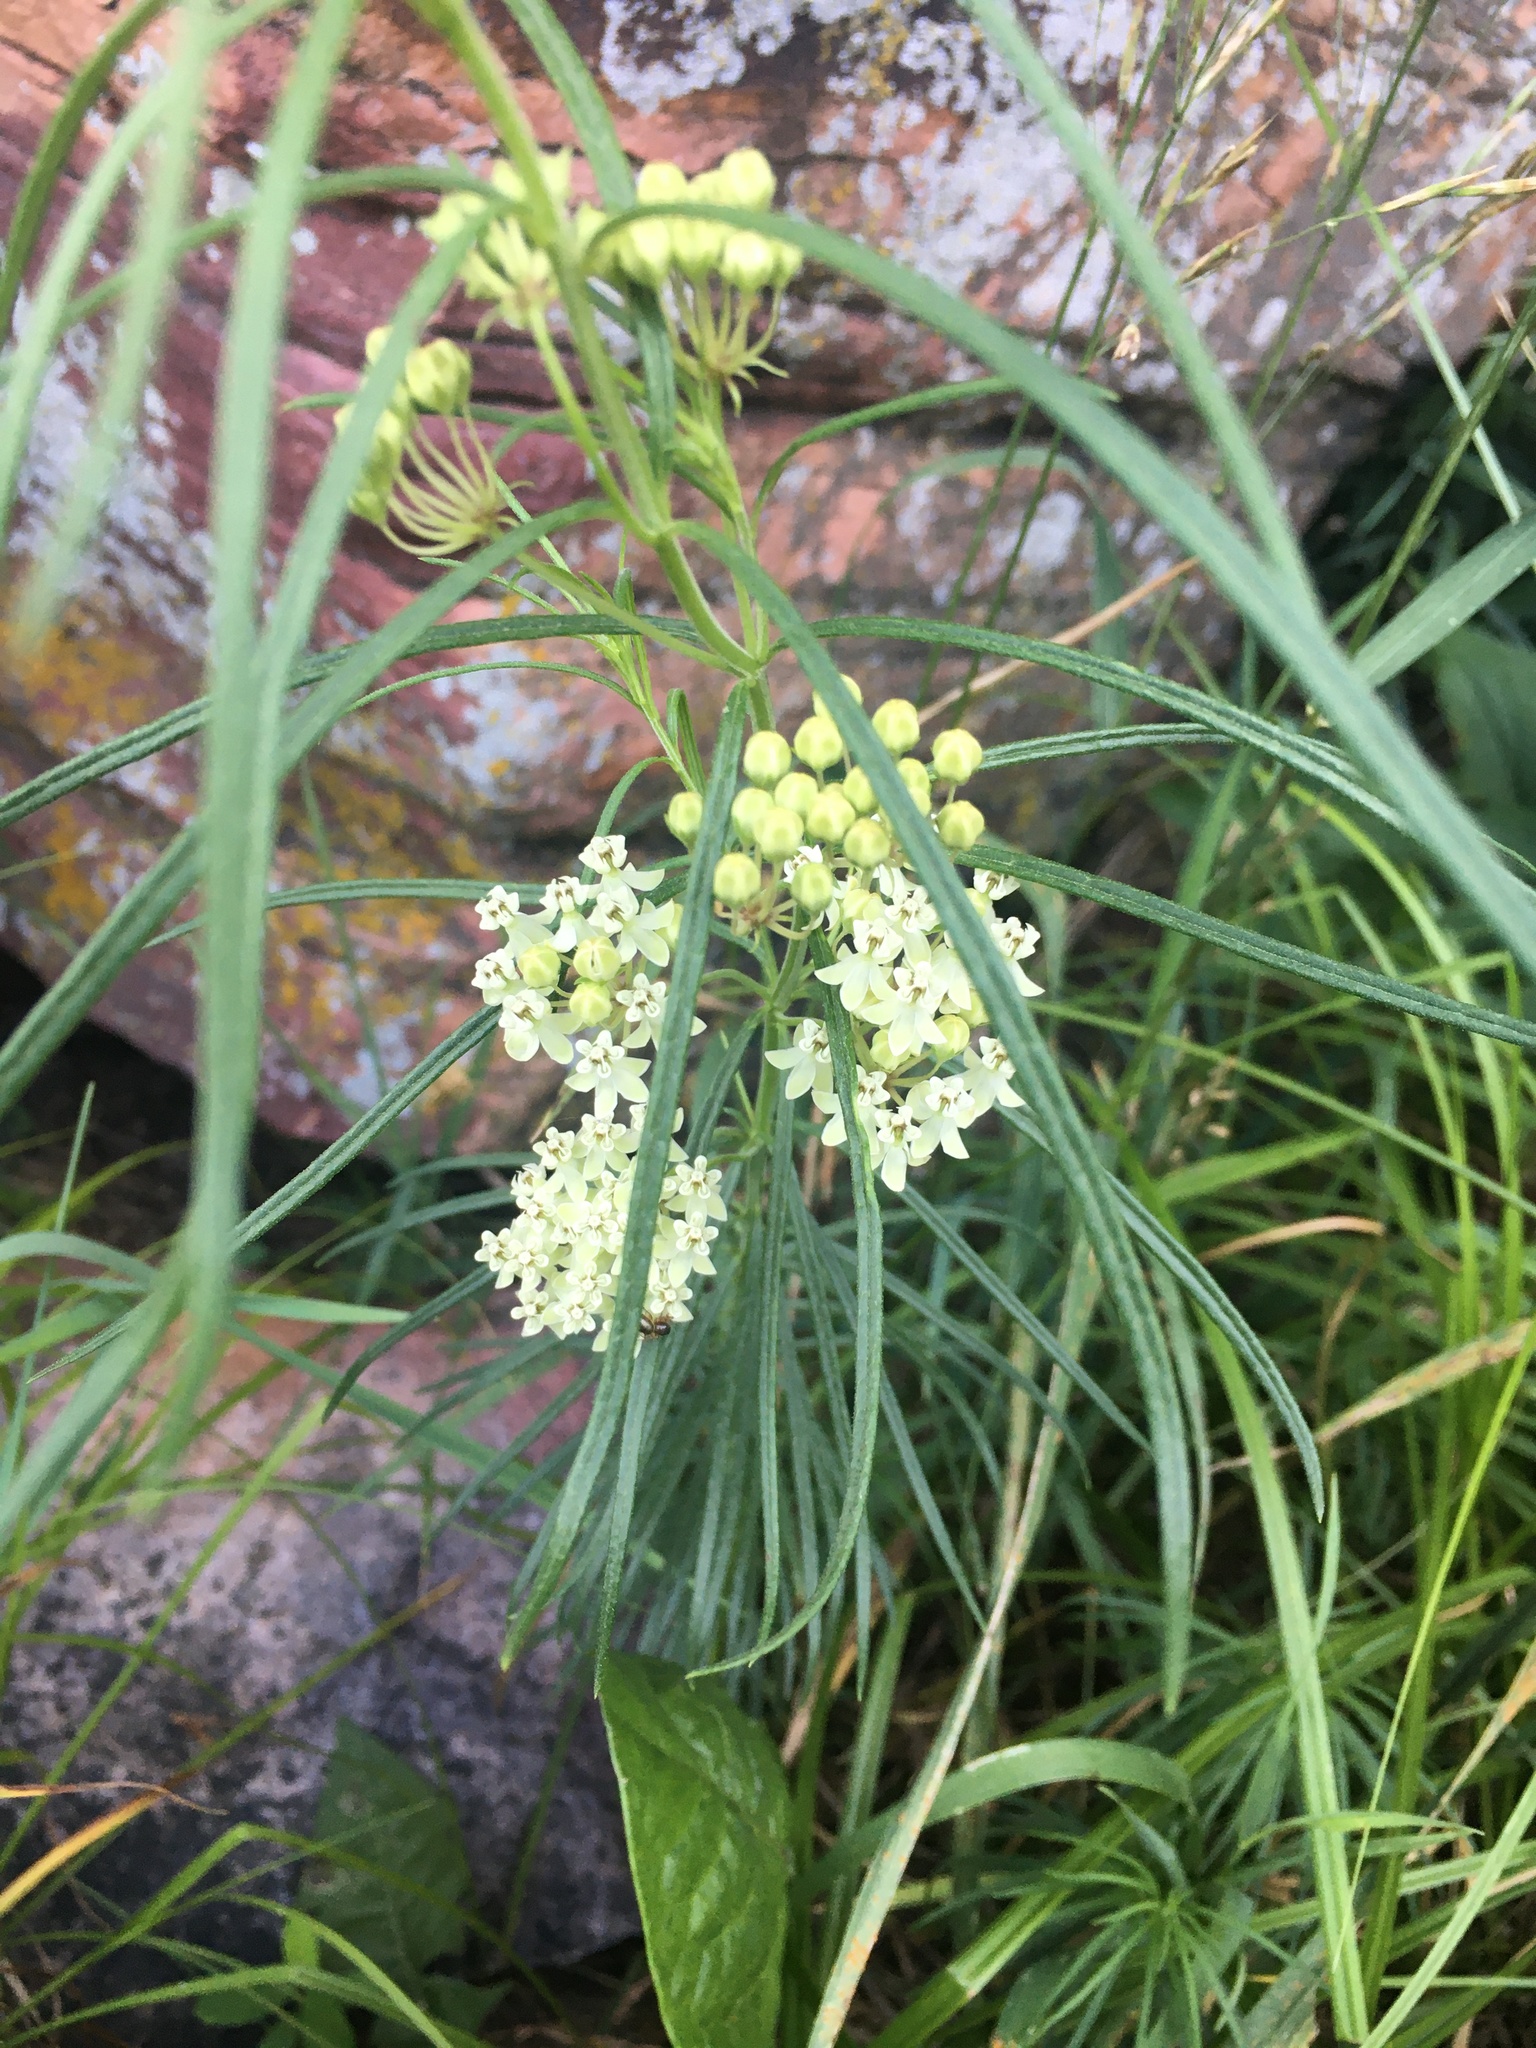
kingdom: Plantae
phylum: Tracheophyta
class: Magnoliopsida
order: Gentianales
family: Apocynaceae
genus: Asclepias
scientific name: Asclepias verticillata
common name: Eastern whorled milkweed
